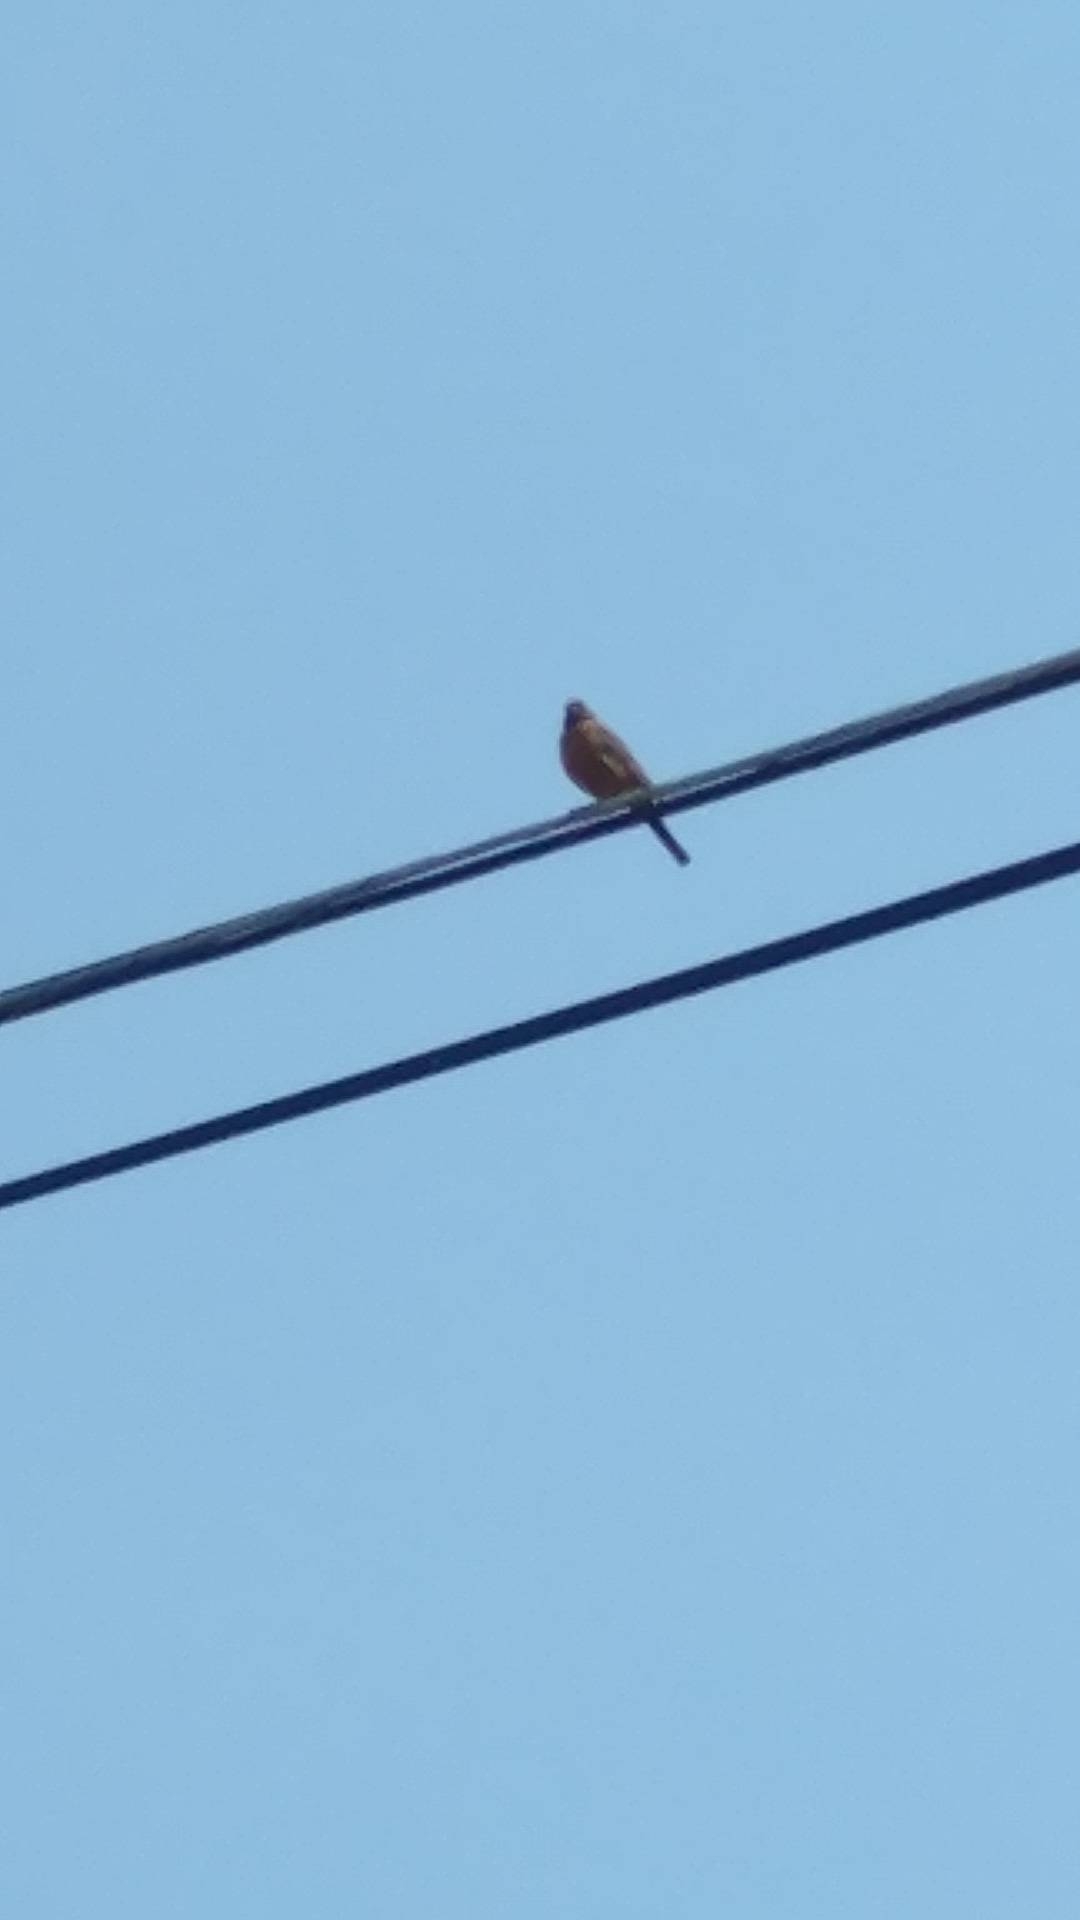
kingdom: Animalia
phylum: Chordata
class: Aves
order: Passeriformes
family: Turdidae
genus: Turdus
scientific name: Turdus migratorius
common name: American robin
